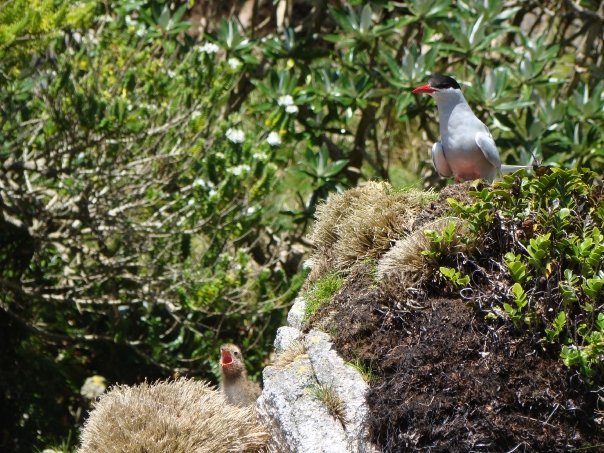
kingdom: Animalia
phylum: Chordata
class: Aves
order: Charadriiformes
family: Laridae
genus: Sterna
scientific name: Sterna vittata
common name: Antarctic tern
